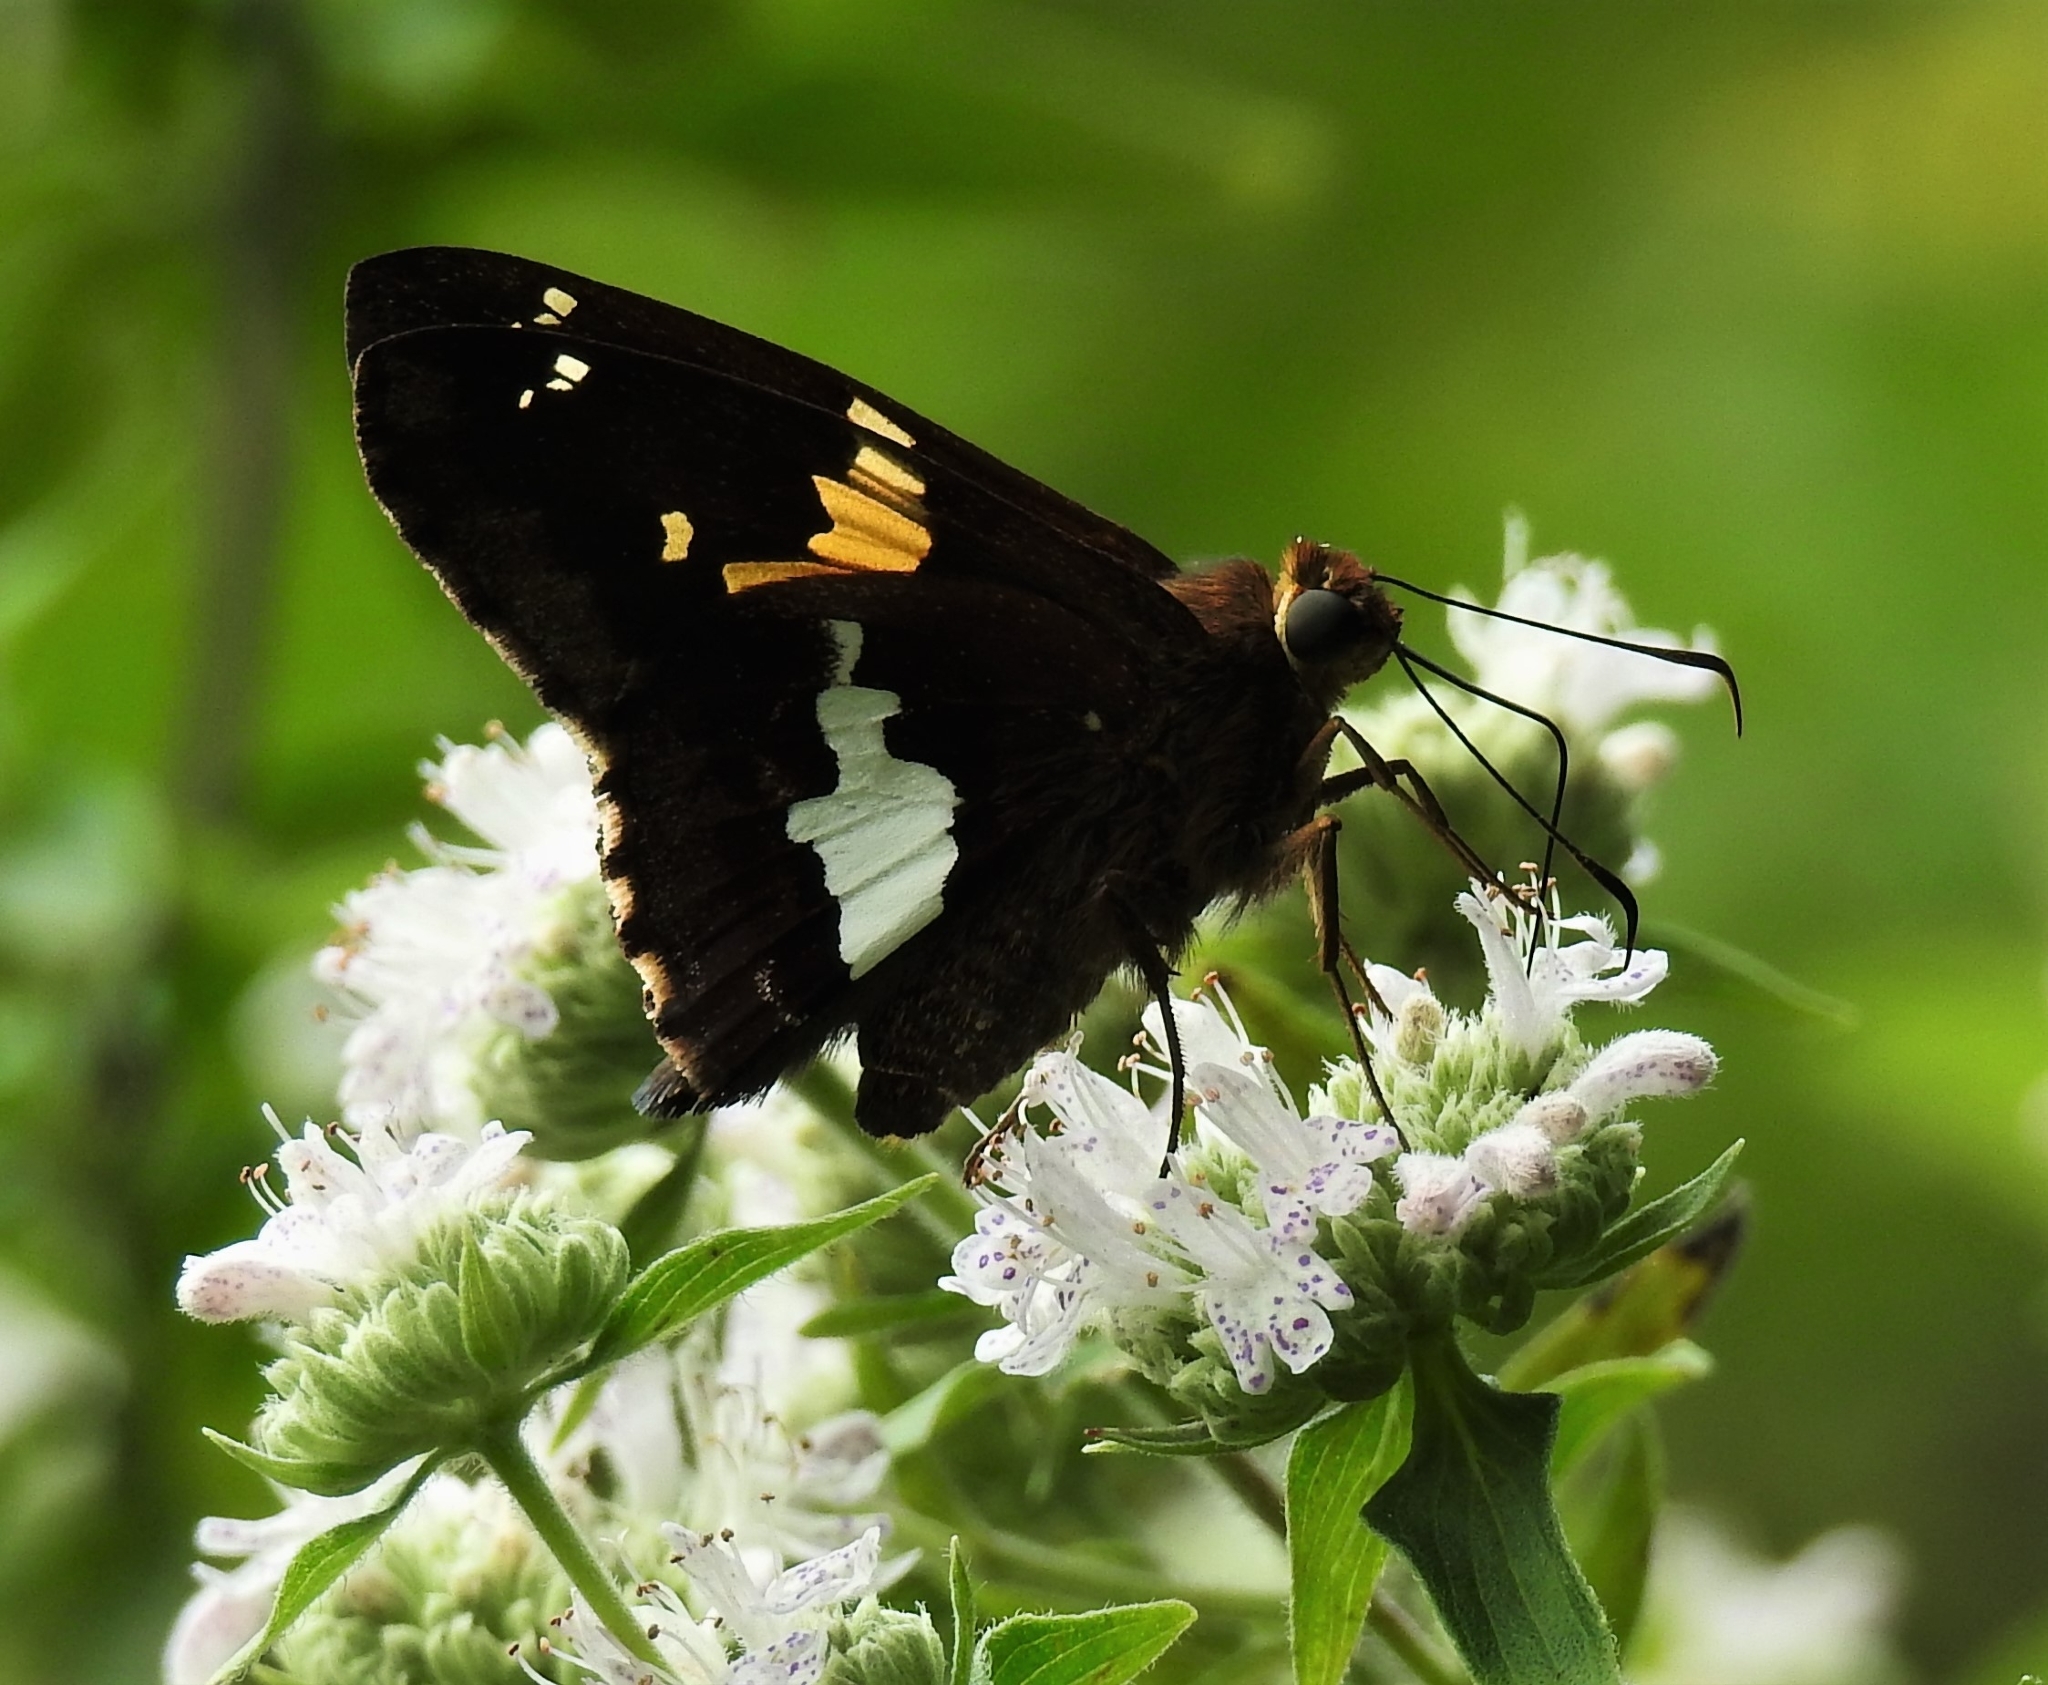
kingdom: Animalia
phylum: Arthropoda
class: Insecta
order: Lepidoptera
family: Hesperiidae
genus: Epargyreus
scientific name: Epargyreus clarus
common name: Silver-spotted skipper
